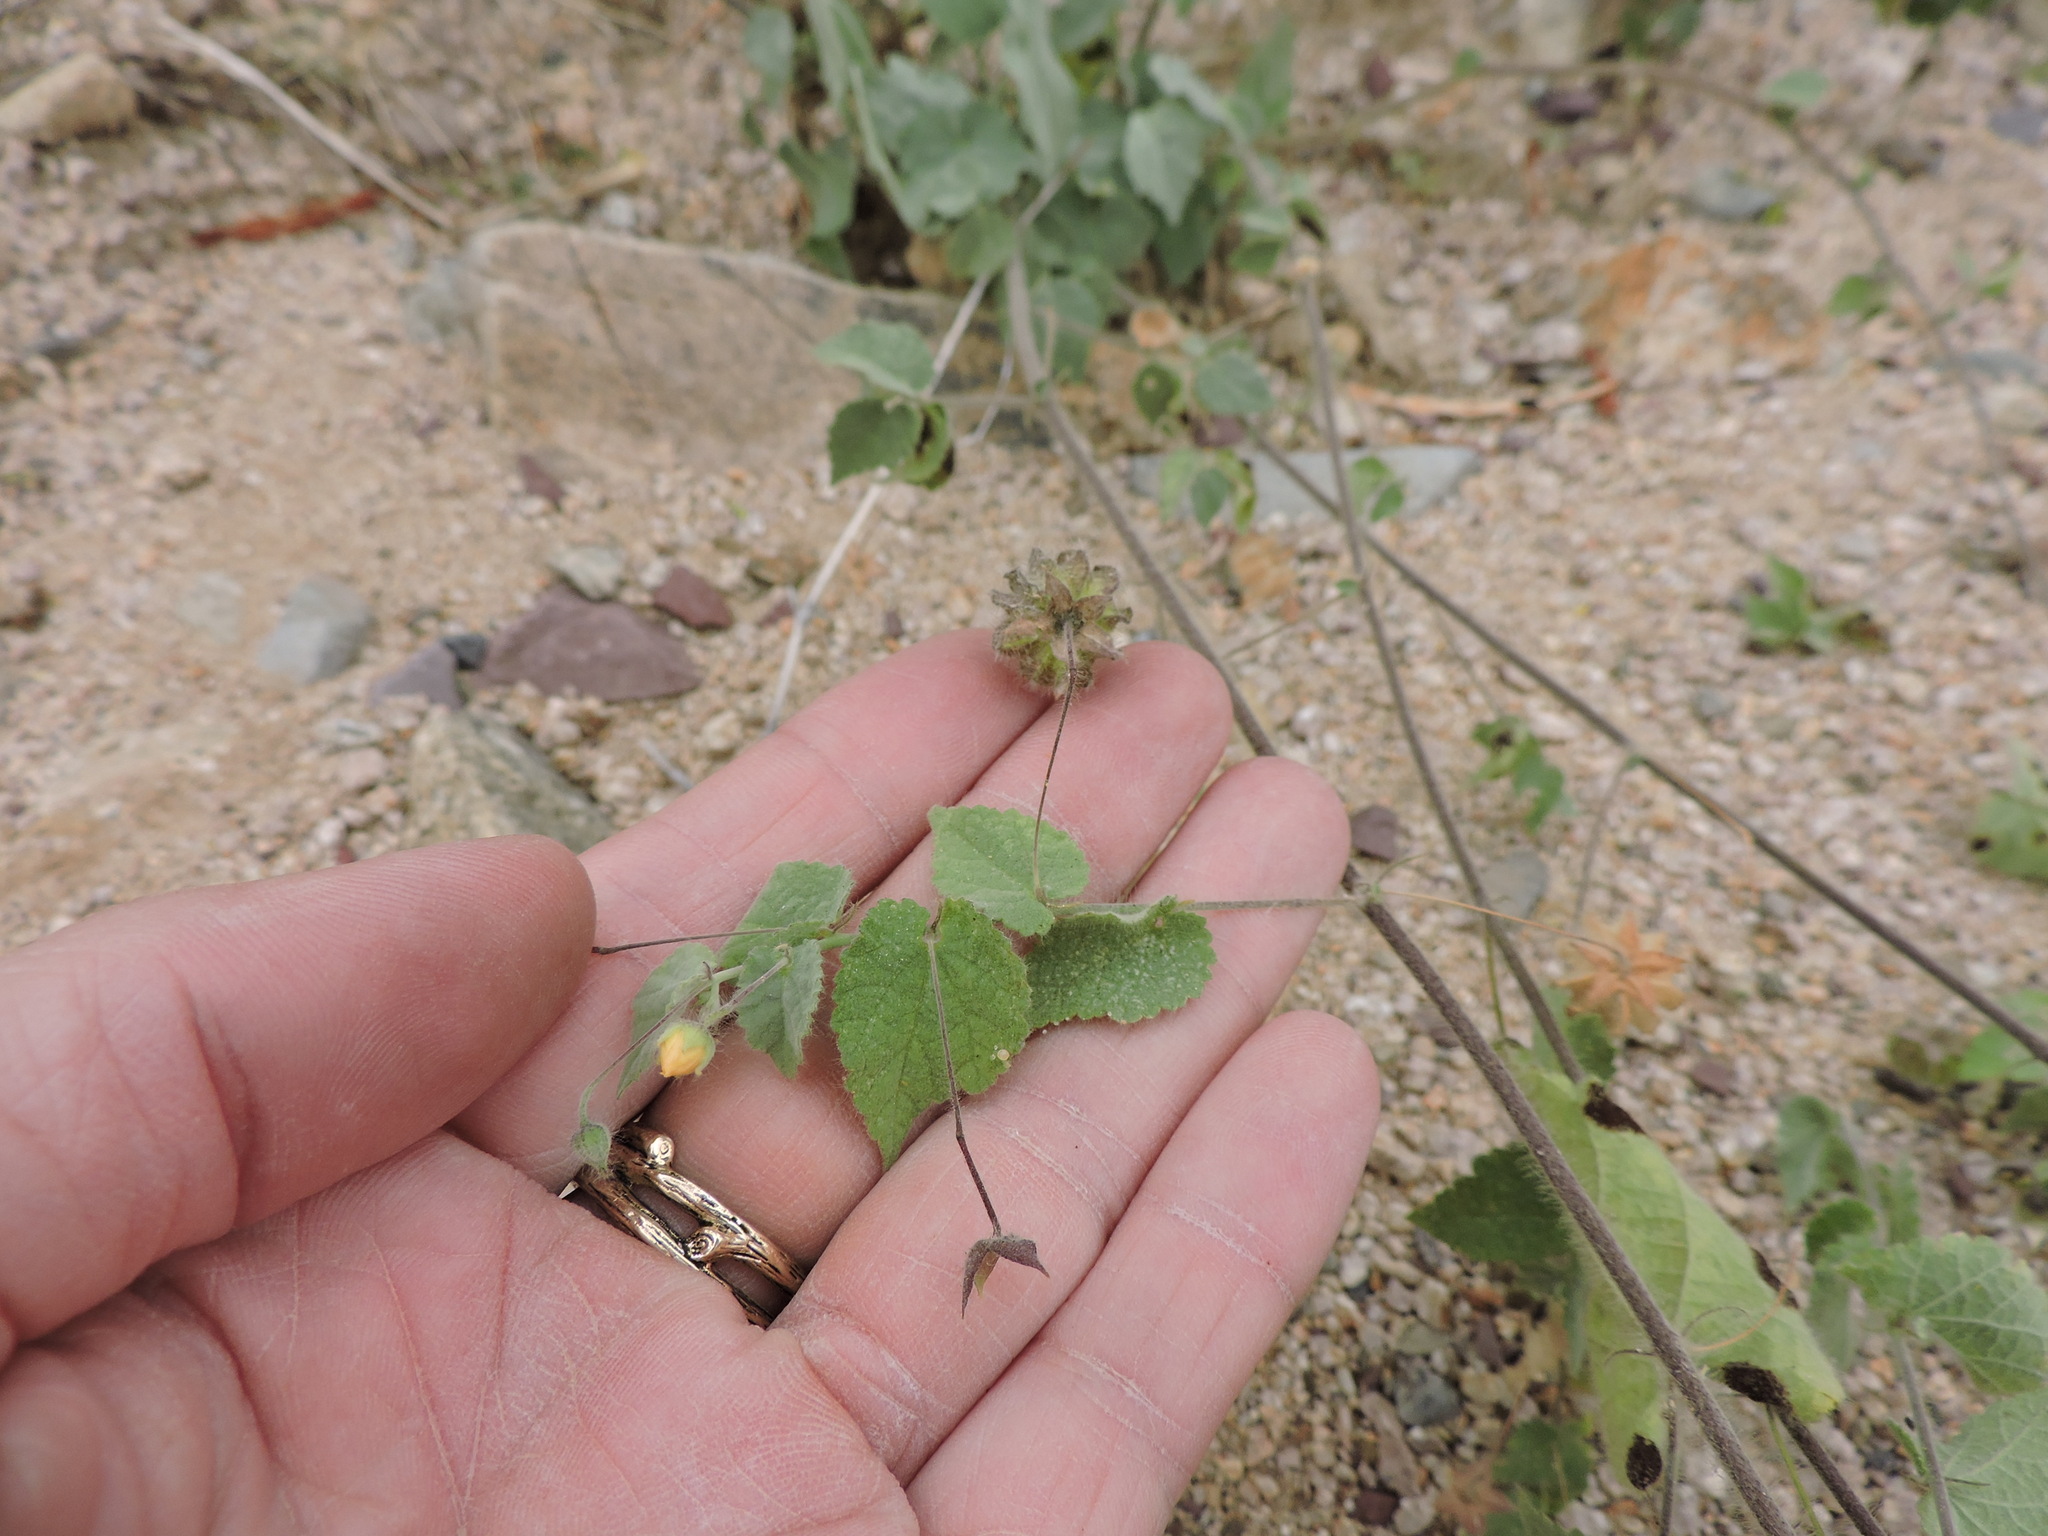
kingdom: Plantae
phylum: Tracheophyta
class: Magnoliopsida
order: Malvales
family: Malvaceae
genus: Herissantia
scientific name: Herissantia crispa
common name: Bladdermallow
